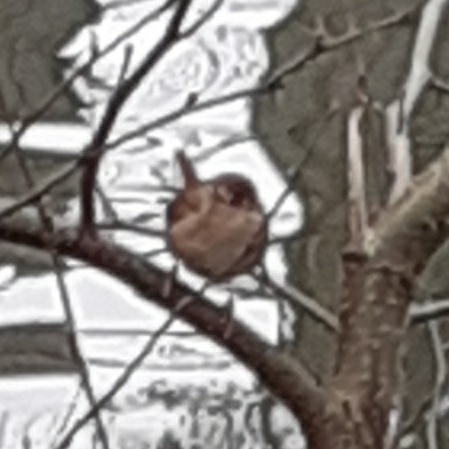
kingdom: Animalia
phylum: Chordata
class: Aves
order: Passeriformes
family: Troglodytidae
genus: Troglodytes
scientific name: Troglodytes troglodytes
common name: Eurasian wren
